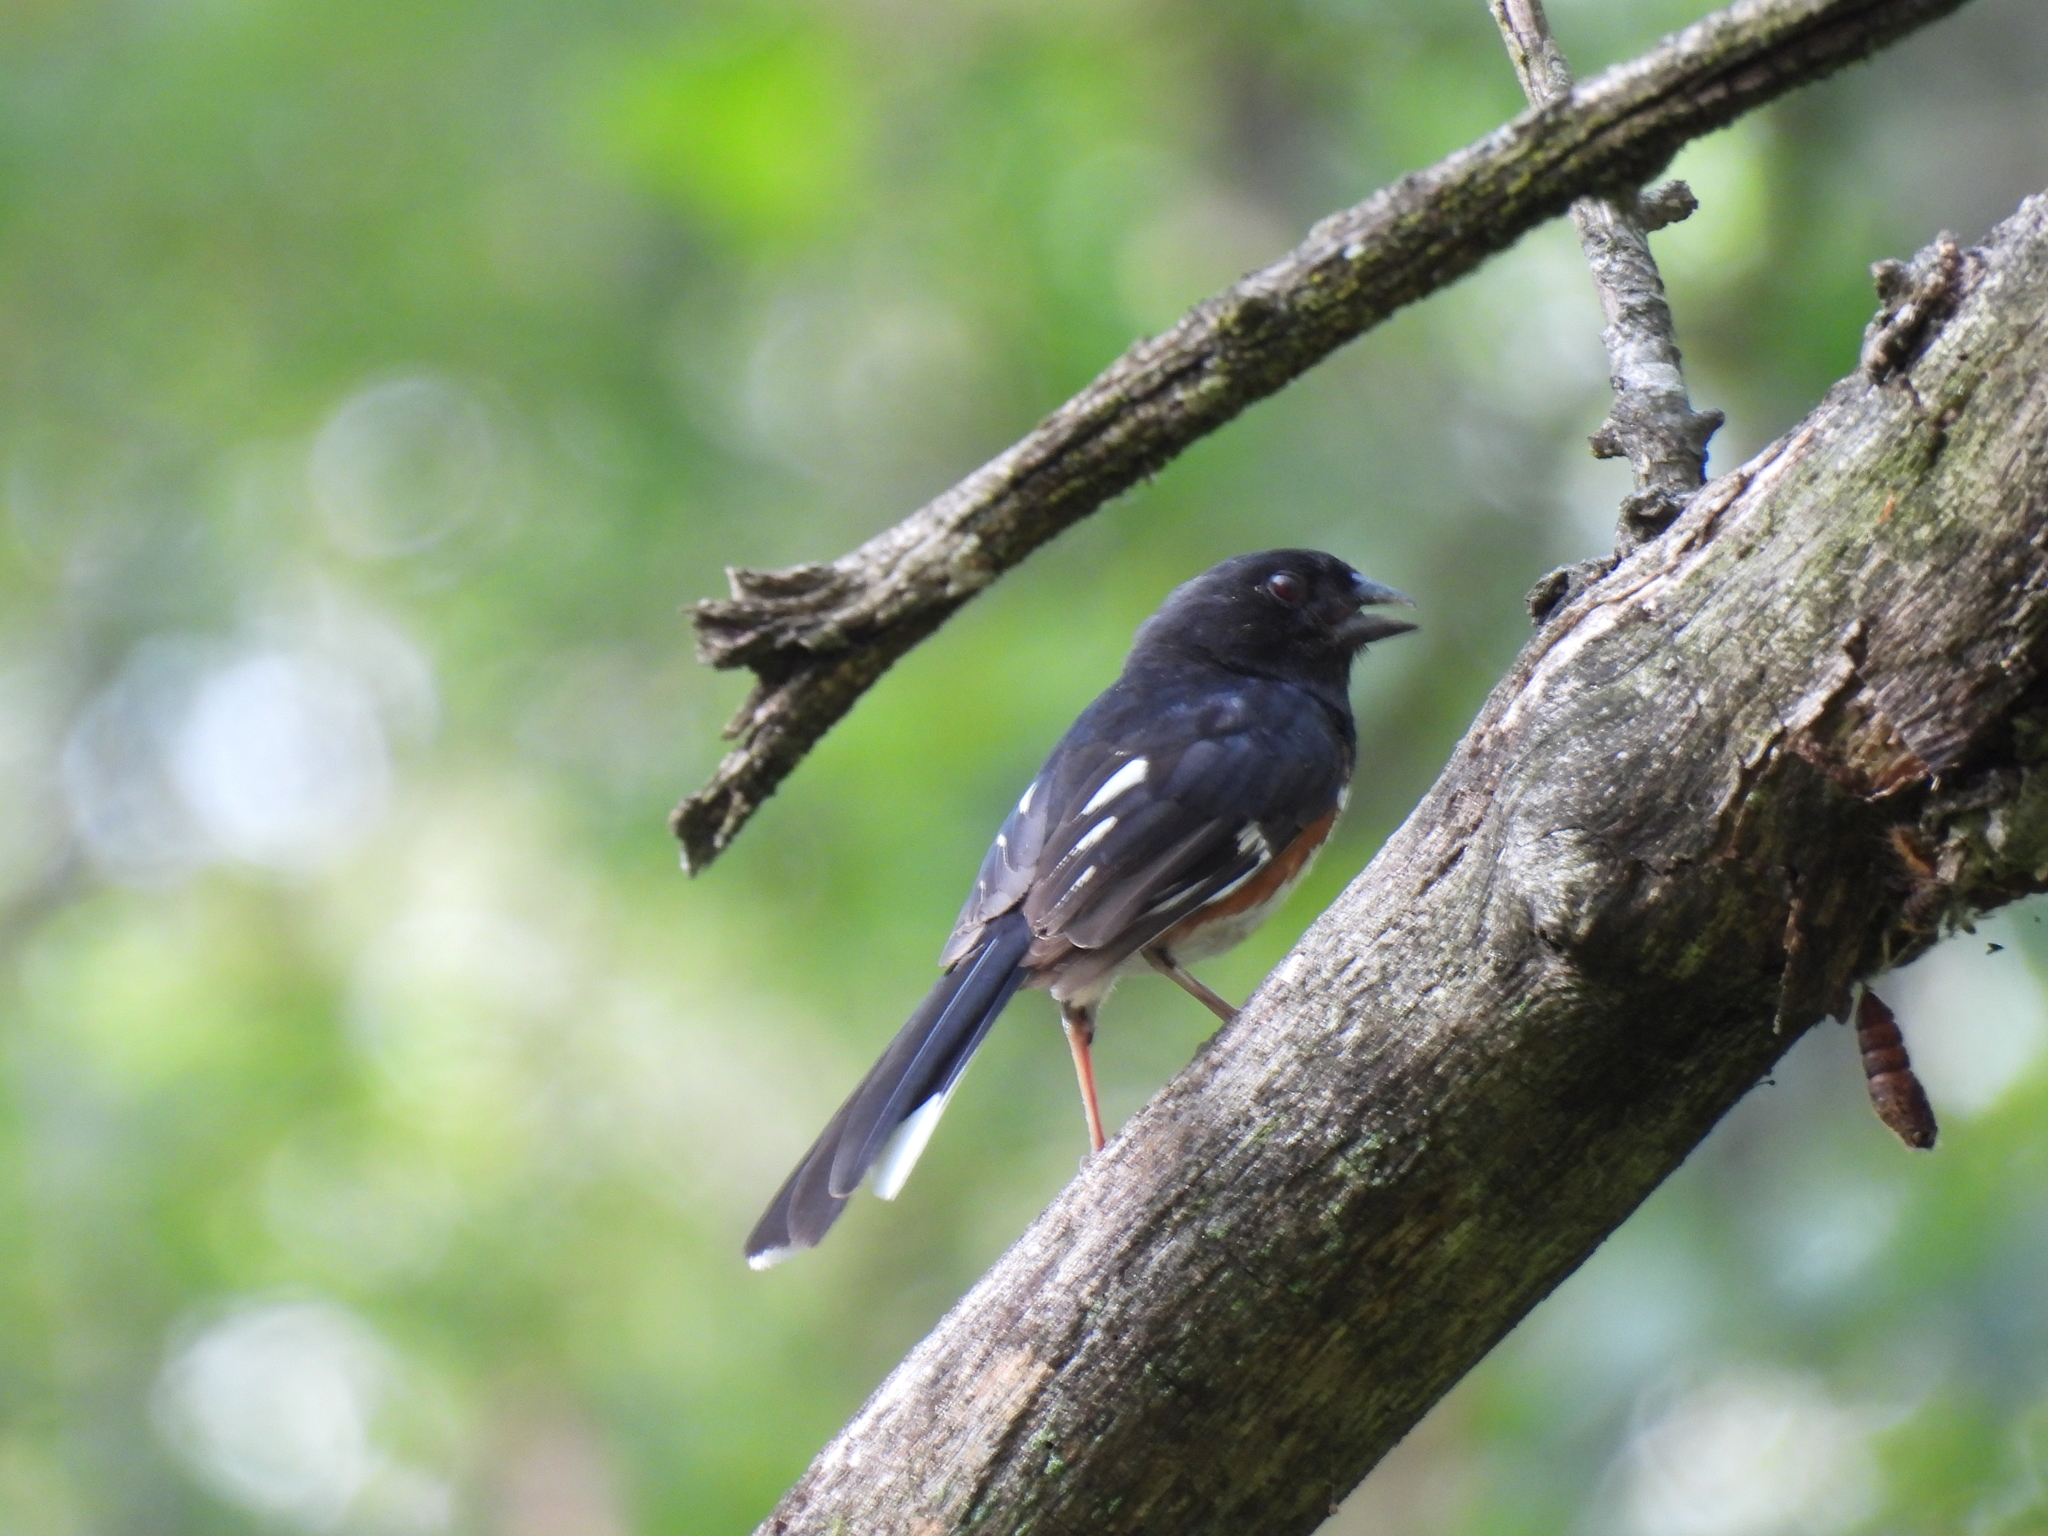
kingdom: Animalia
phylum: Chordata
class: Aves
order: Passeriformes
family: Passerellidae
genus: Pipilo
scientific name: Pipilo erythrophthalmus
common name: Eastern towhee
